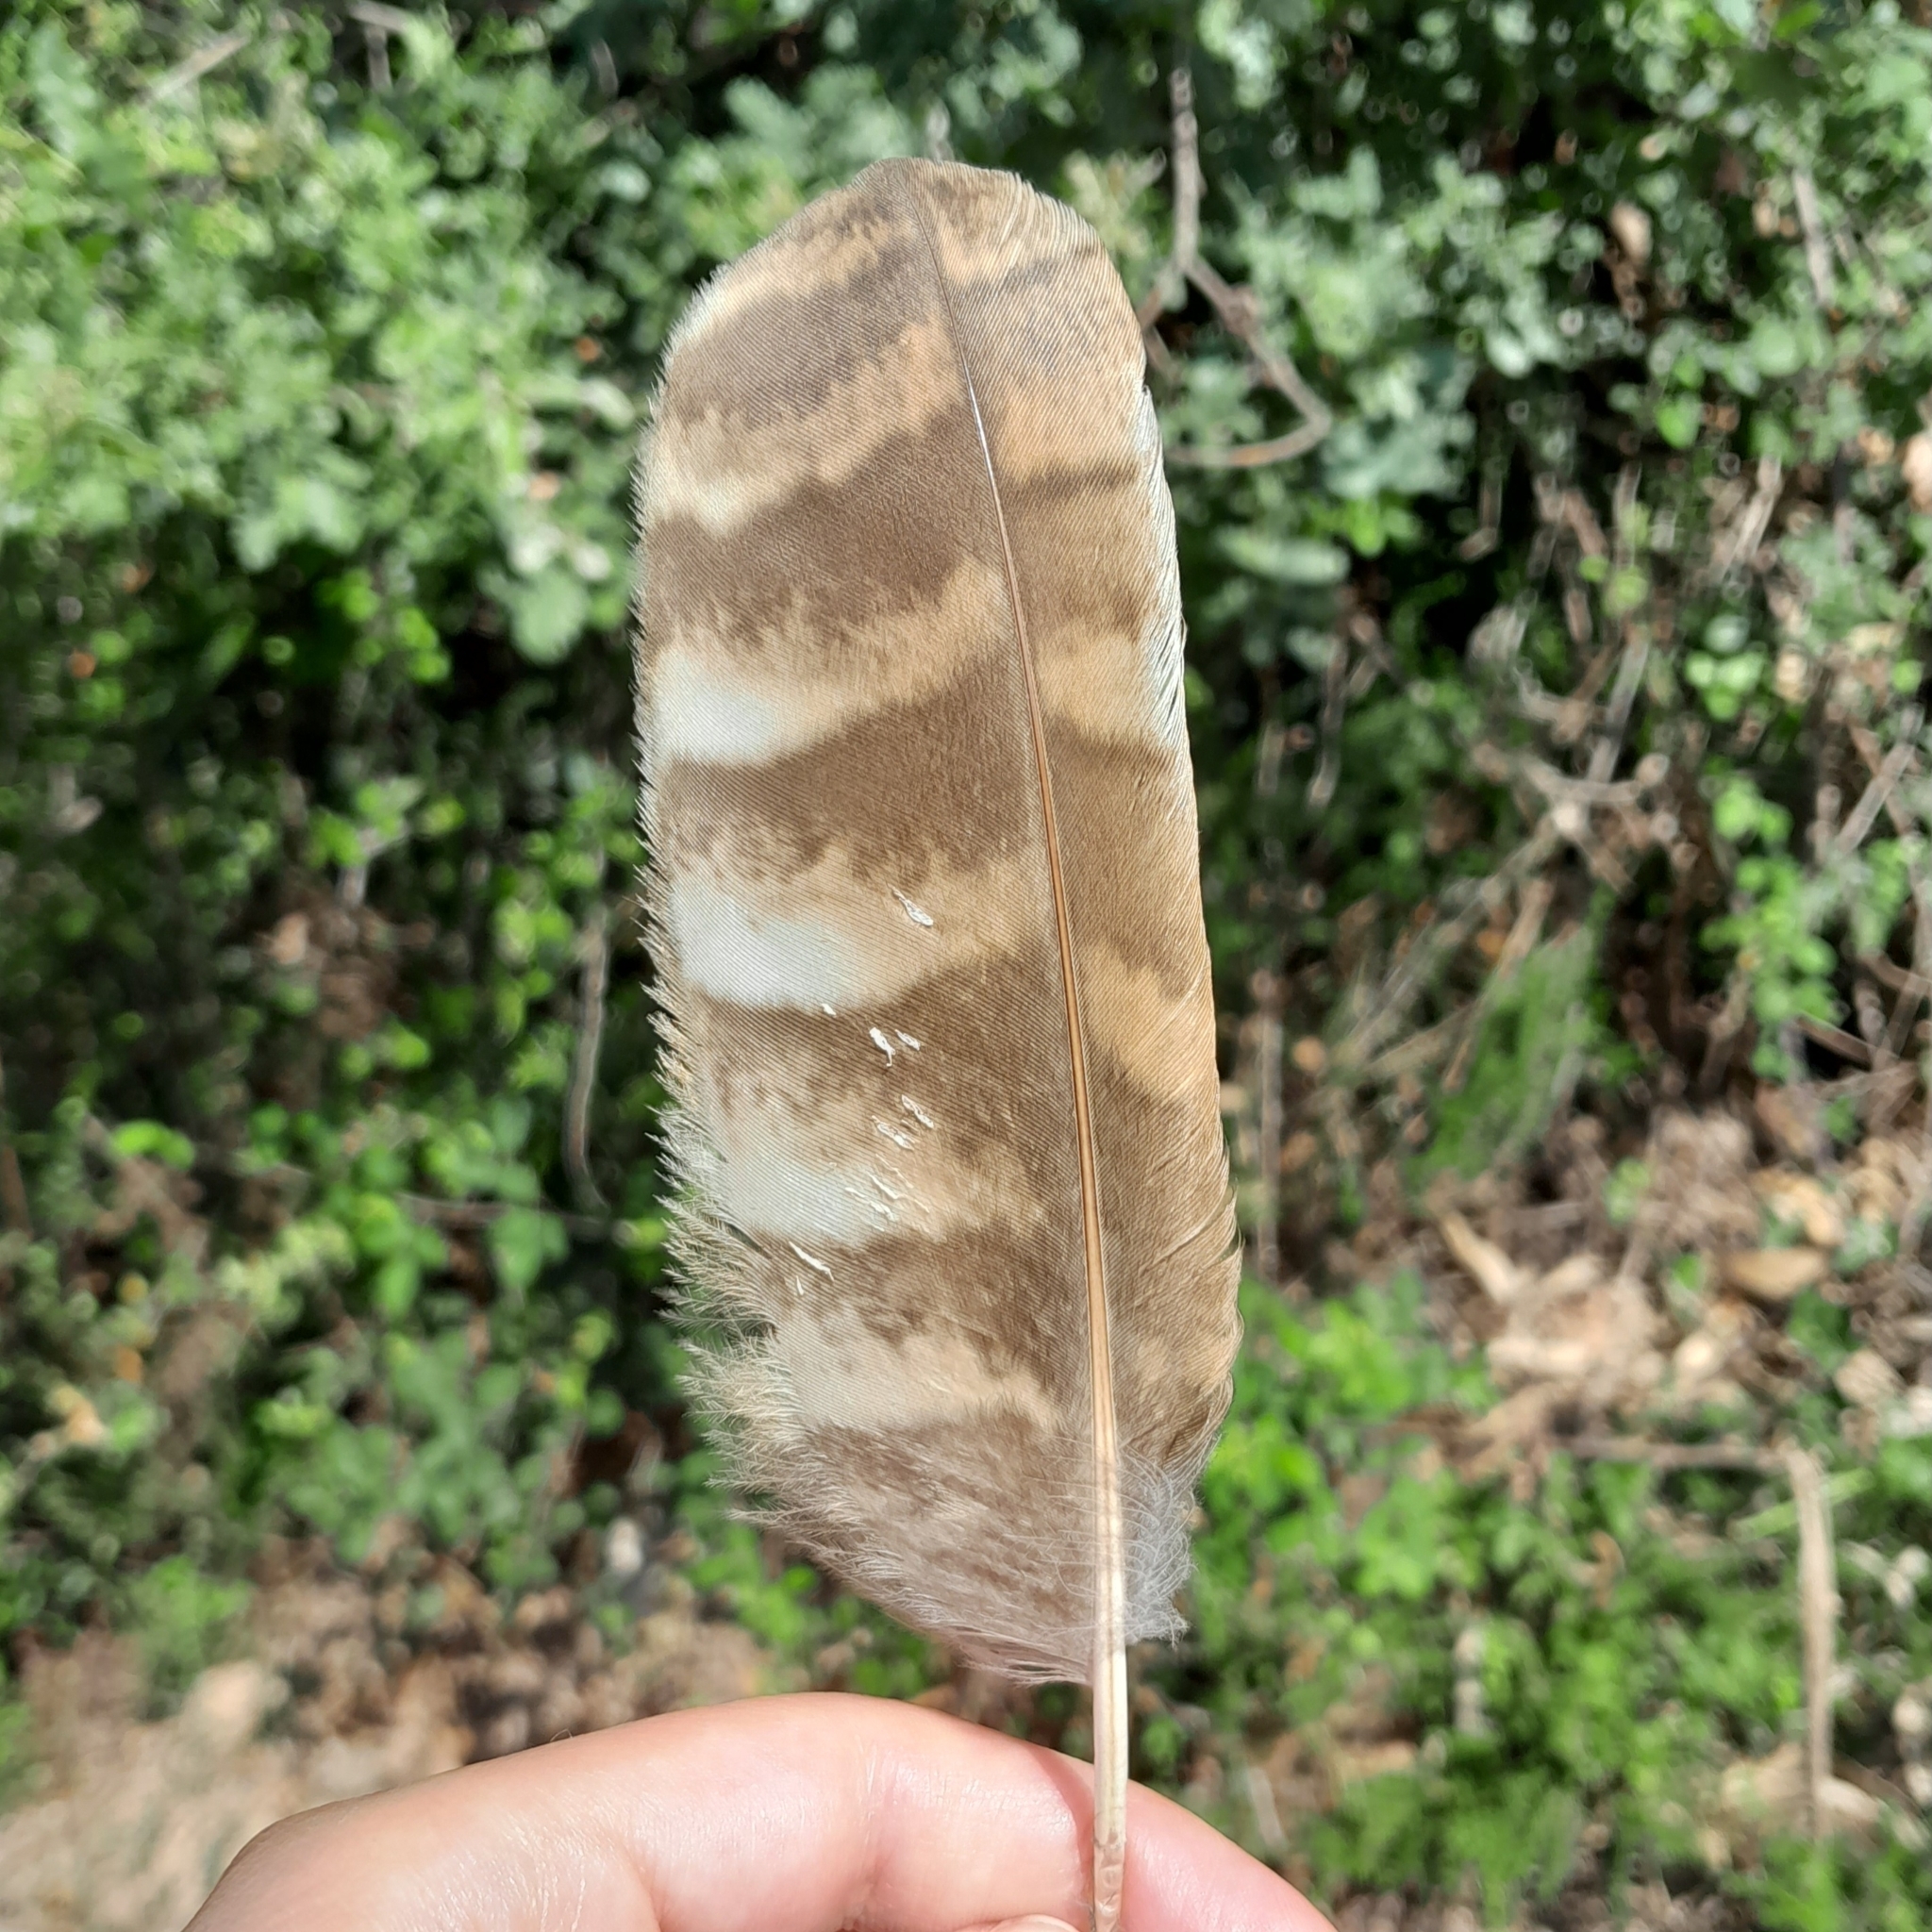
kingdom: Animalia
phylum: Chordata
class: Aves
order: Strigiformes
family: Strigidae
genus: Strix
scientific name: Strix aluco
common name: Tawny owl
